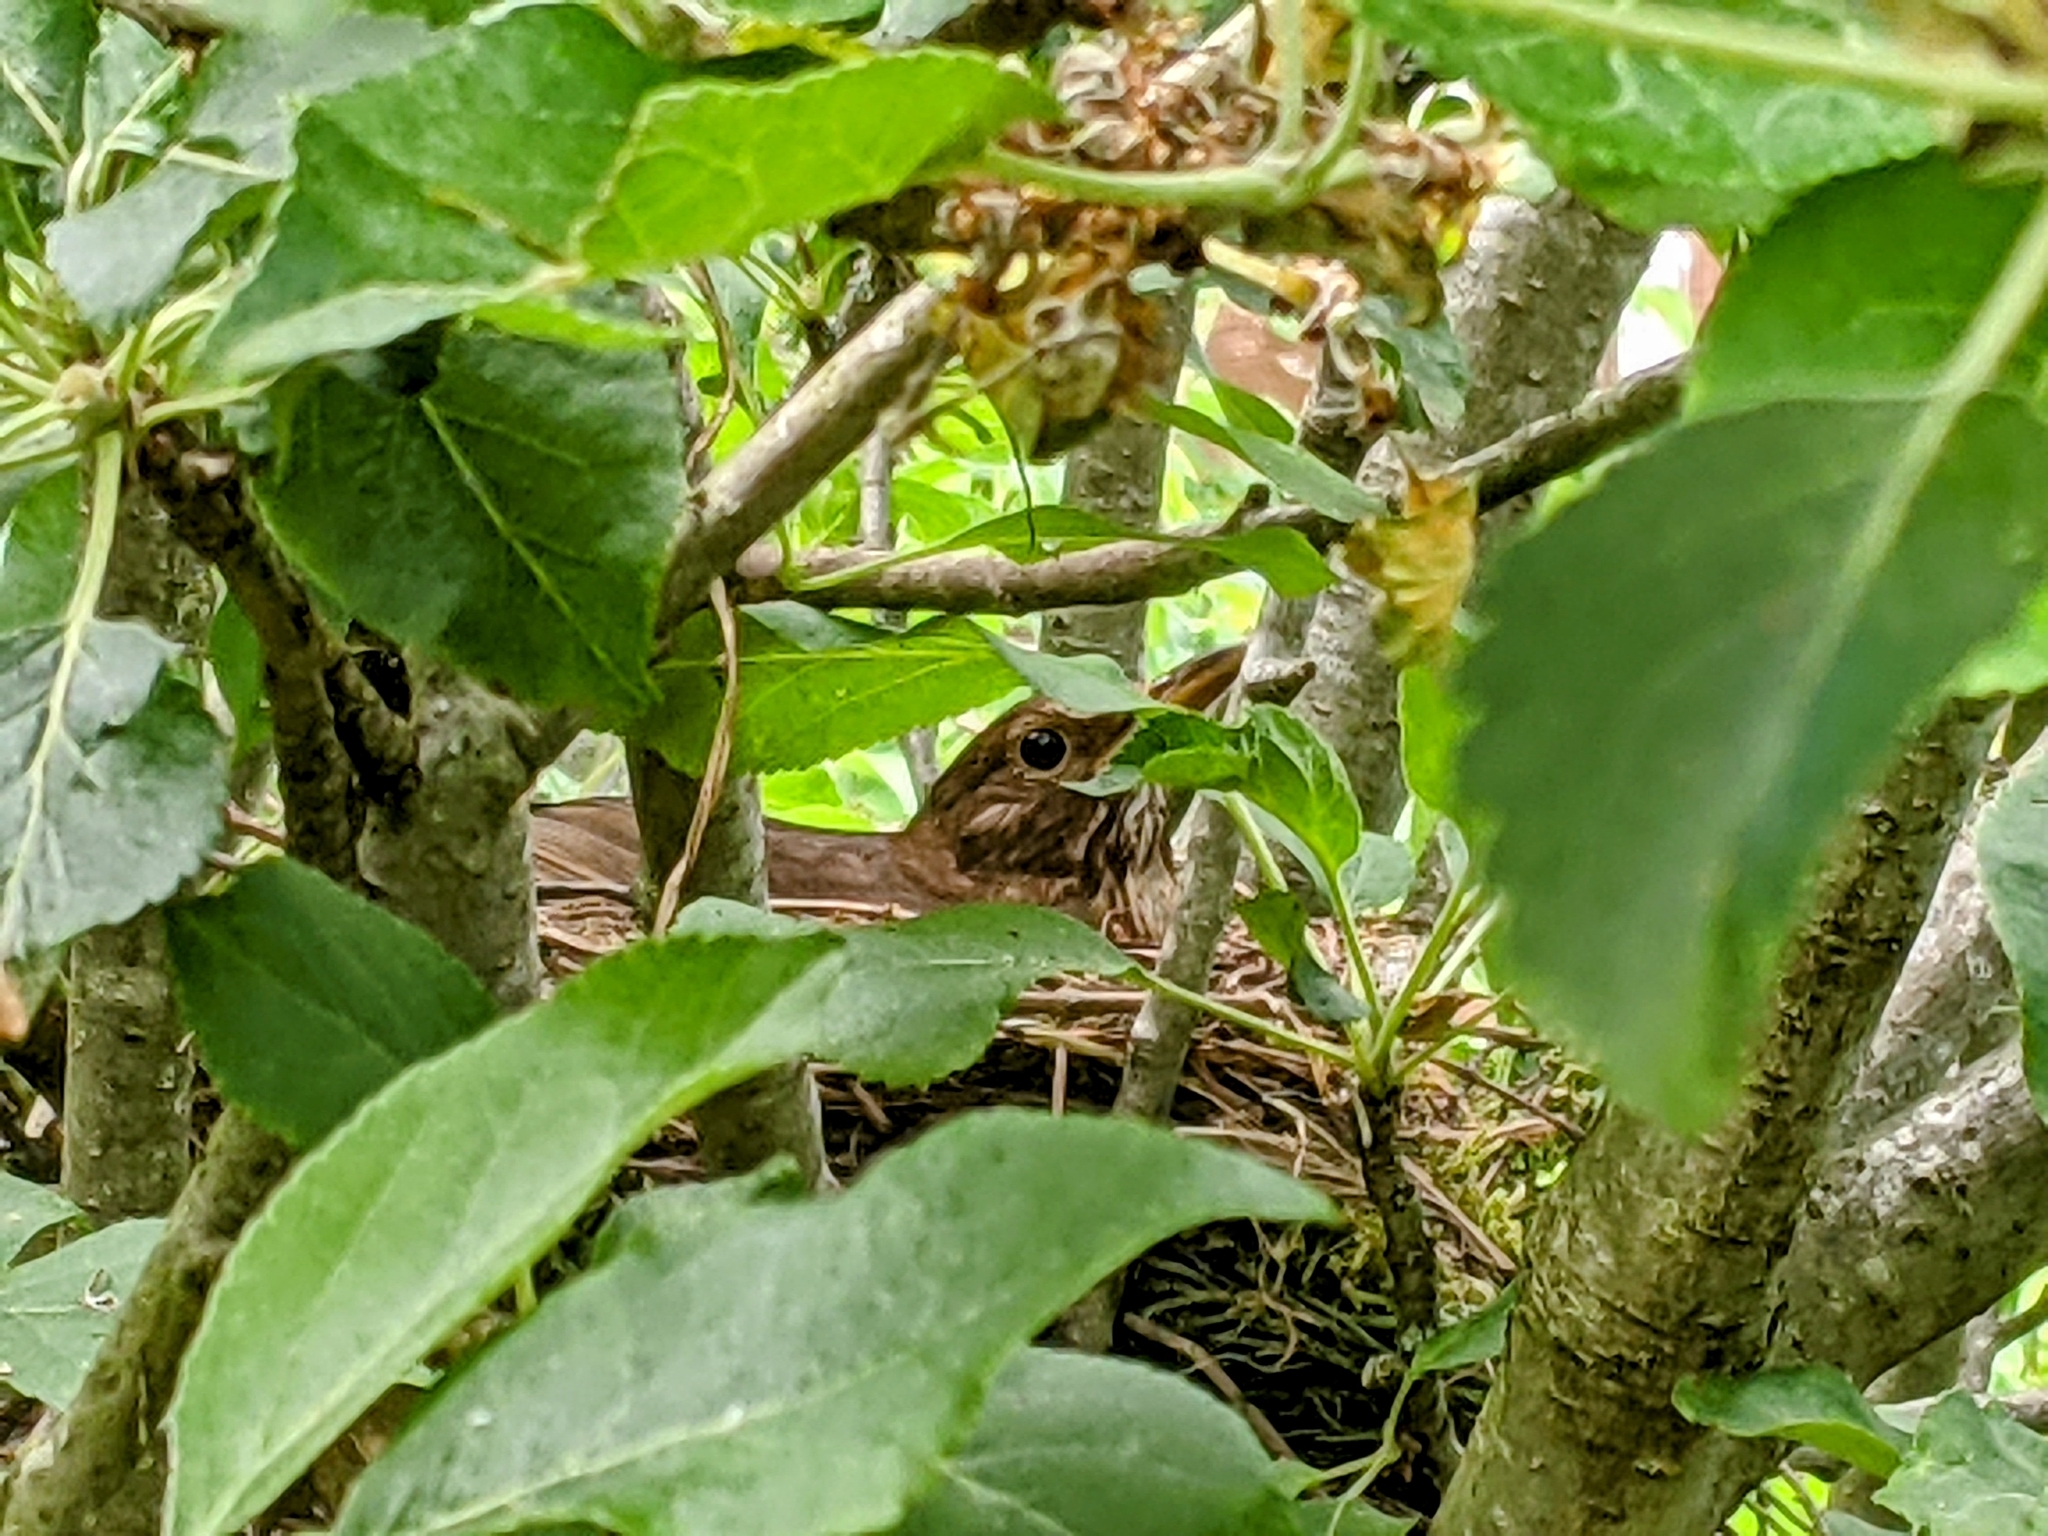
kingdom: Animalia
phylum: Chordata
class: Aves
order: Passeriformes
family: Turdidae
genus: Turdus
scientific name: Turdus merula
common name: Common blackbird
